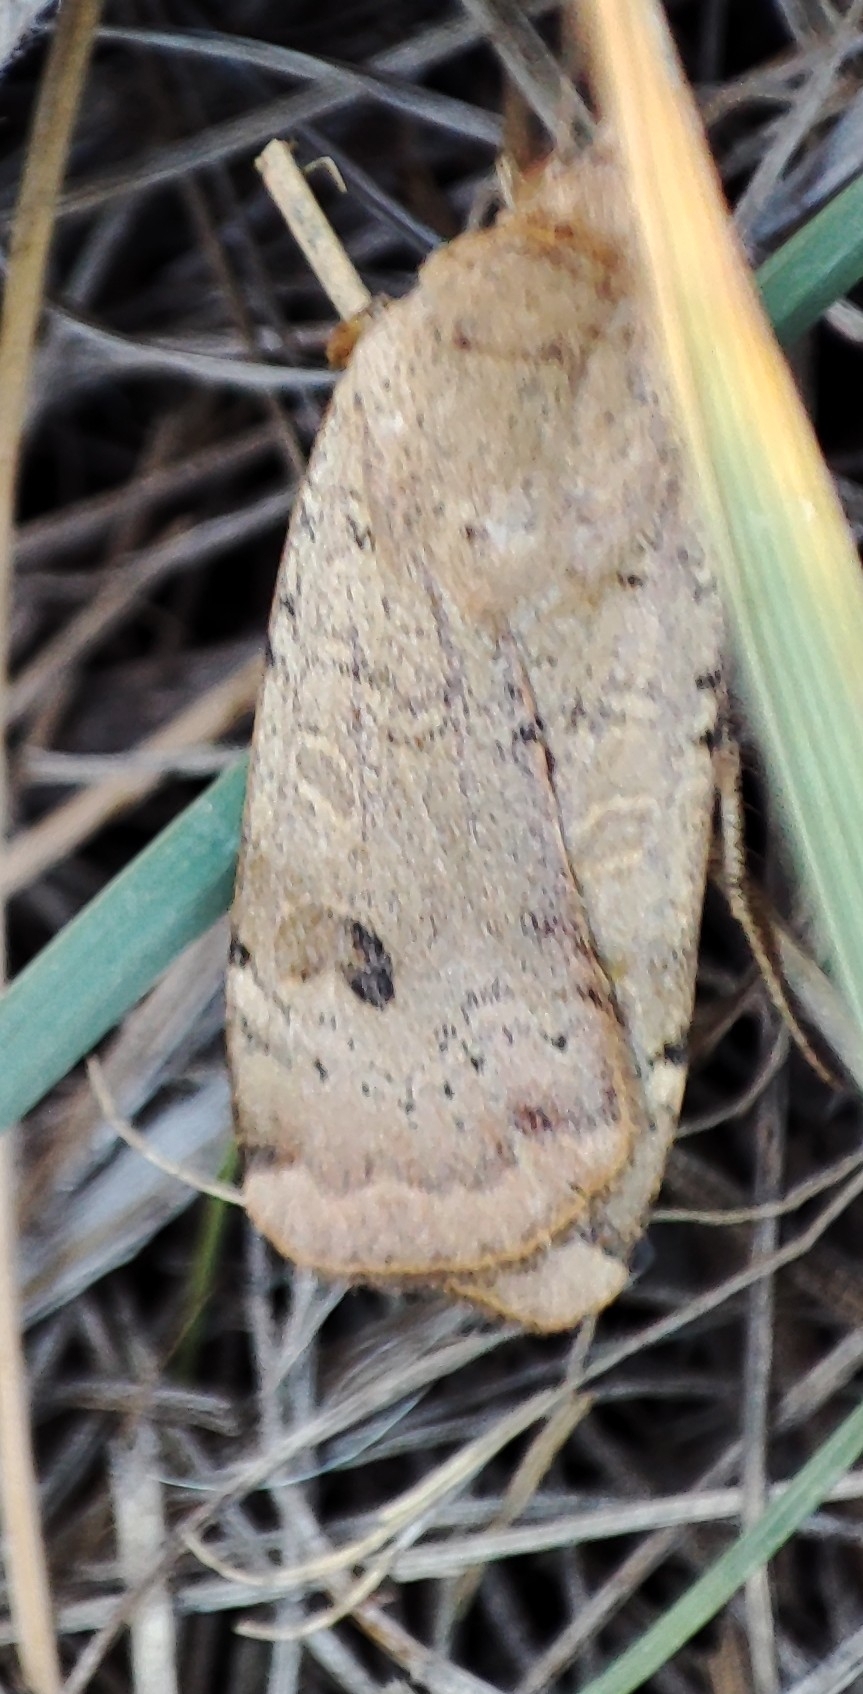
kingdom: Animalia
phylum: Arthropoda
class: Insecta
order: Lepidoptera
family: Noctuidae
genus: Noctua
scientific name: Noctua interposita
